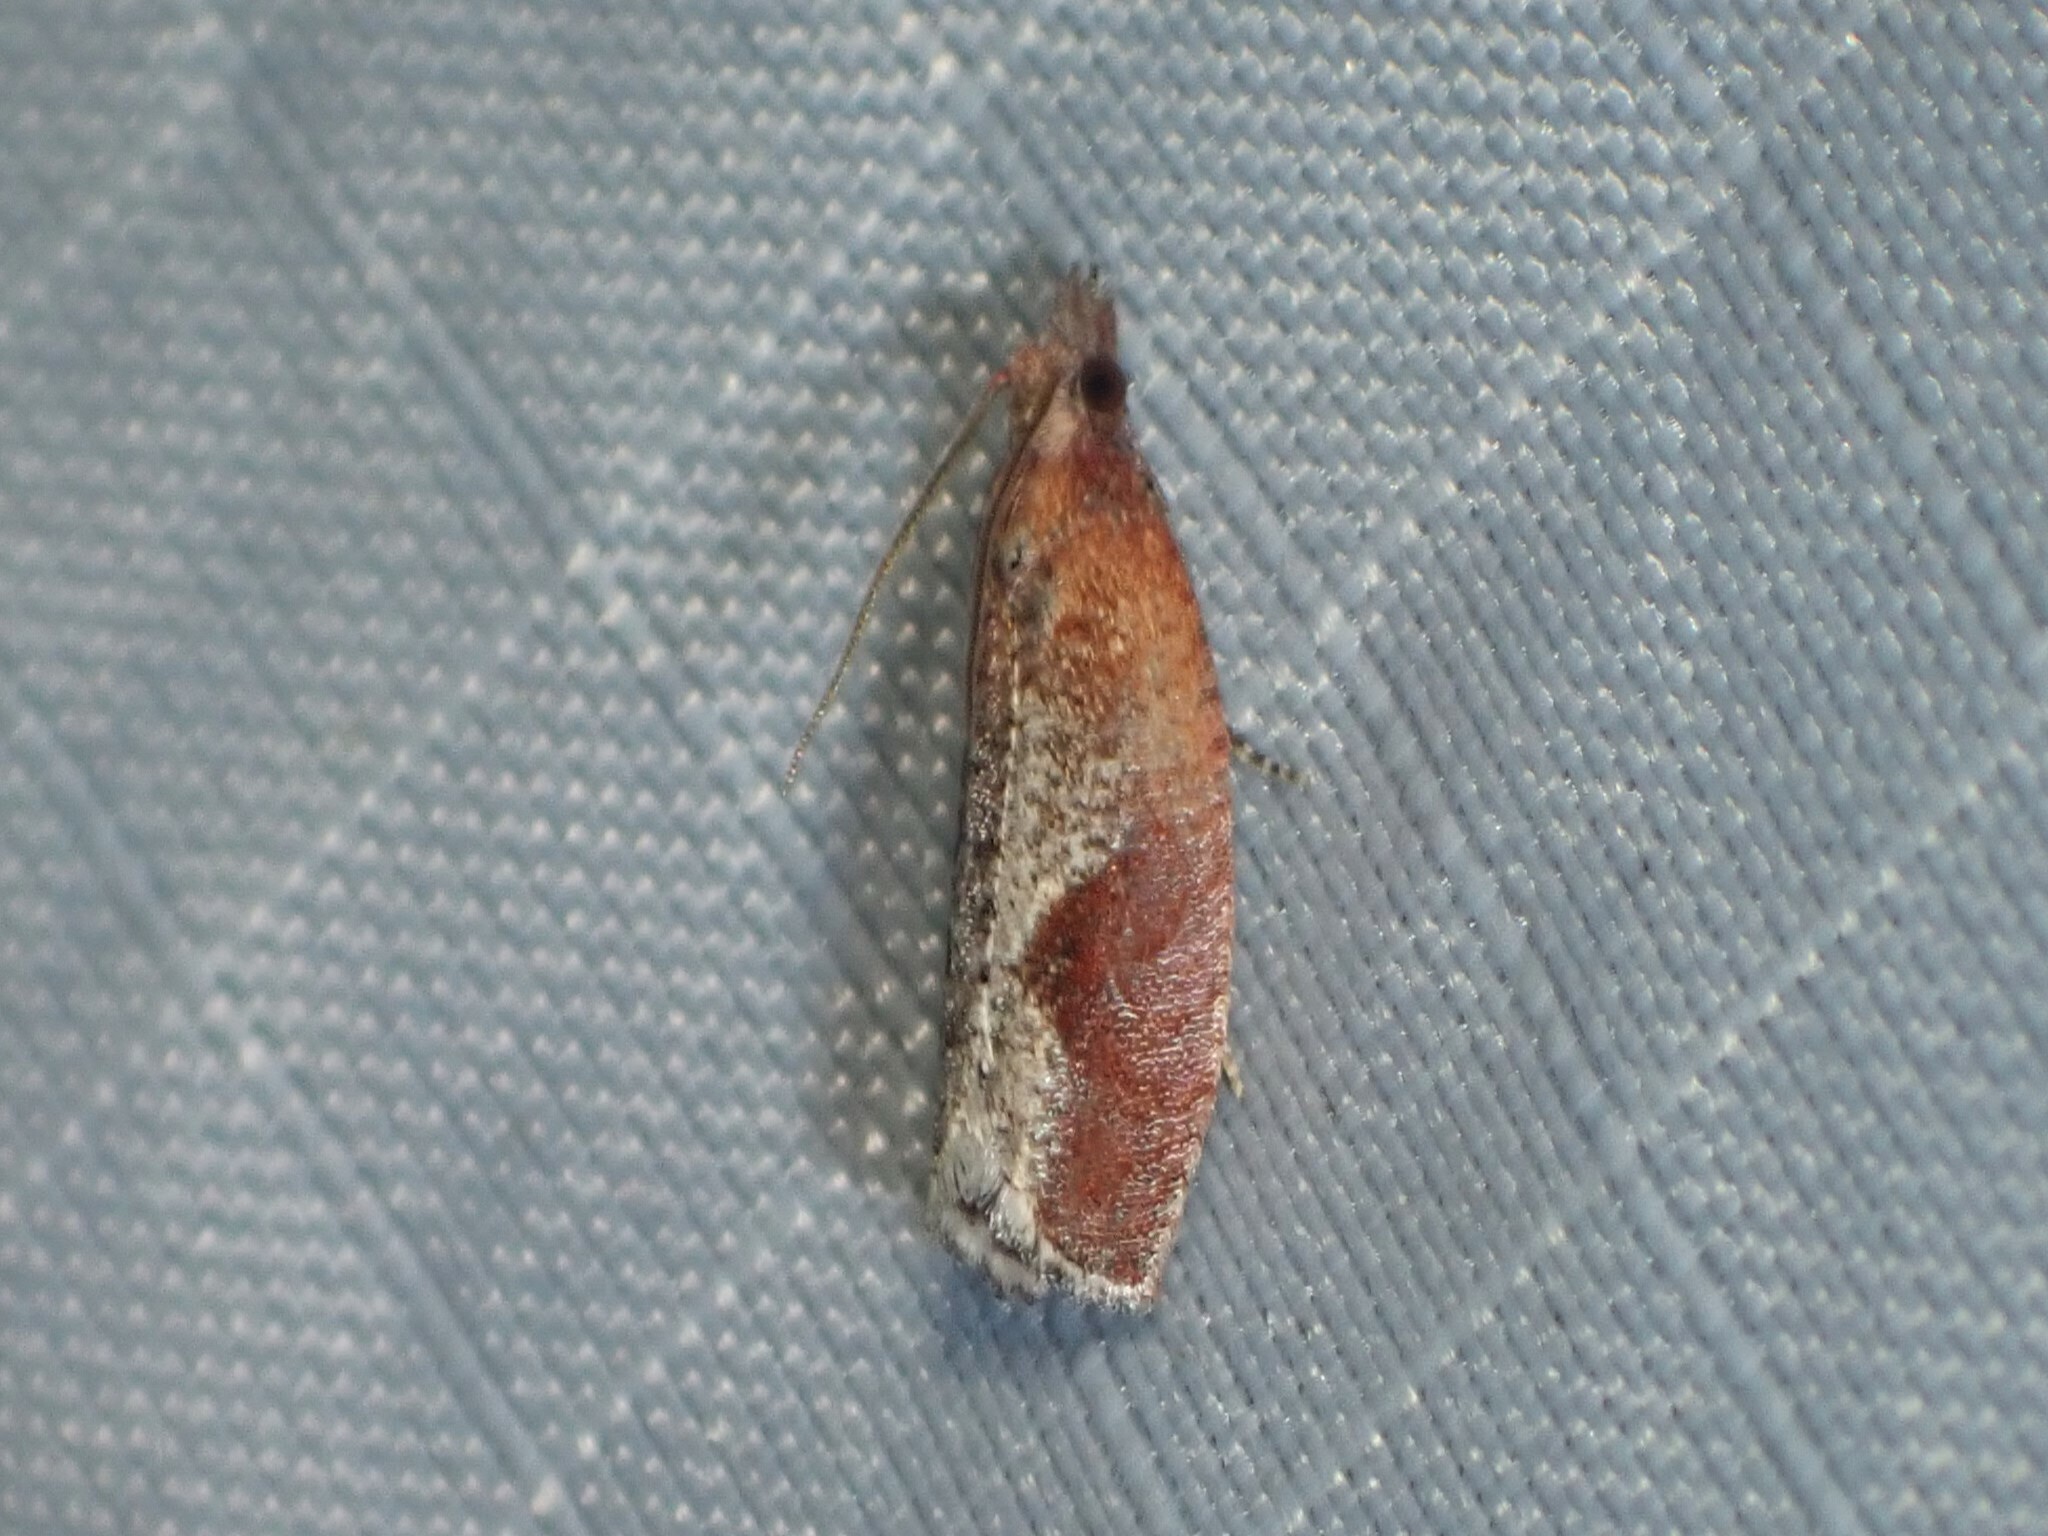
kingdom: Animalia
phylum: Arthropoda
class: Insecta
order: Lepidoptera
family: Tortricidae
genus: Epinotia
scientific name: Epinotia septemberana
